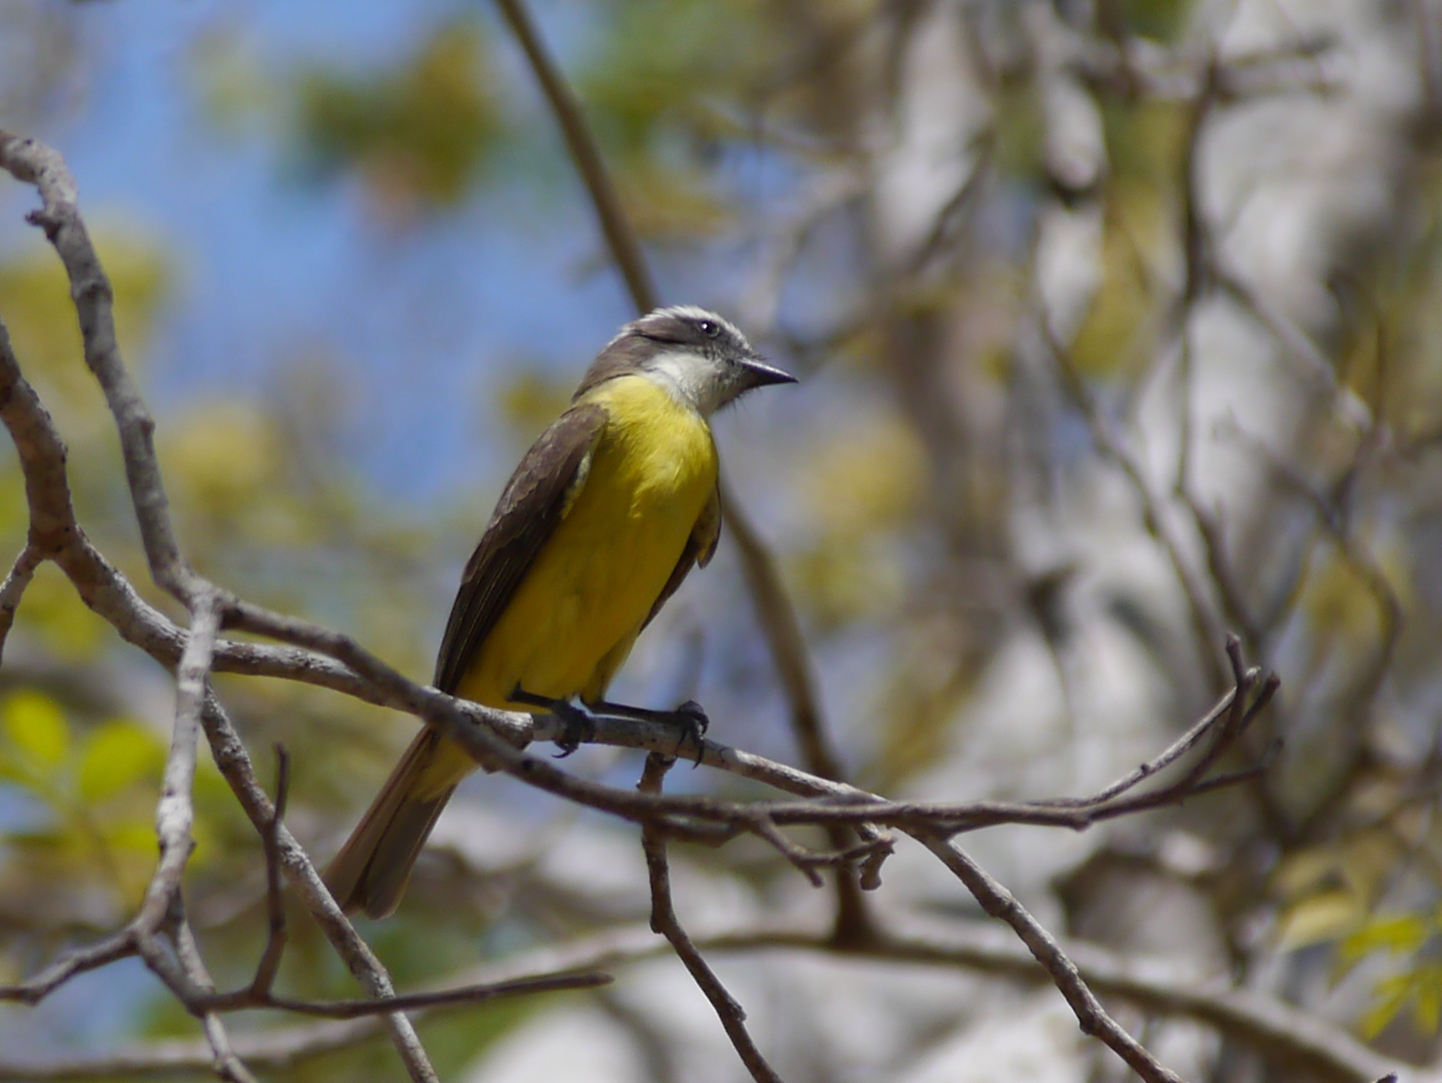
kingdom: Animalia
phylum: Chordata
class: Aves
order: Passeriformes
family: Tyrannidae
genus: Myiozetetes
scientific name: Myiozetetes similis
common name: Social flycatcher
